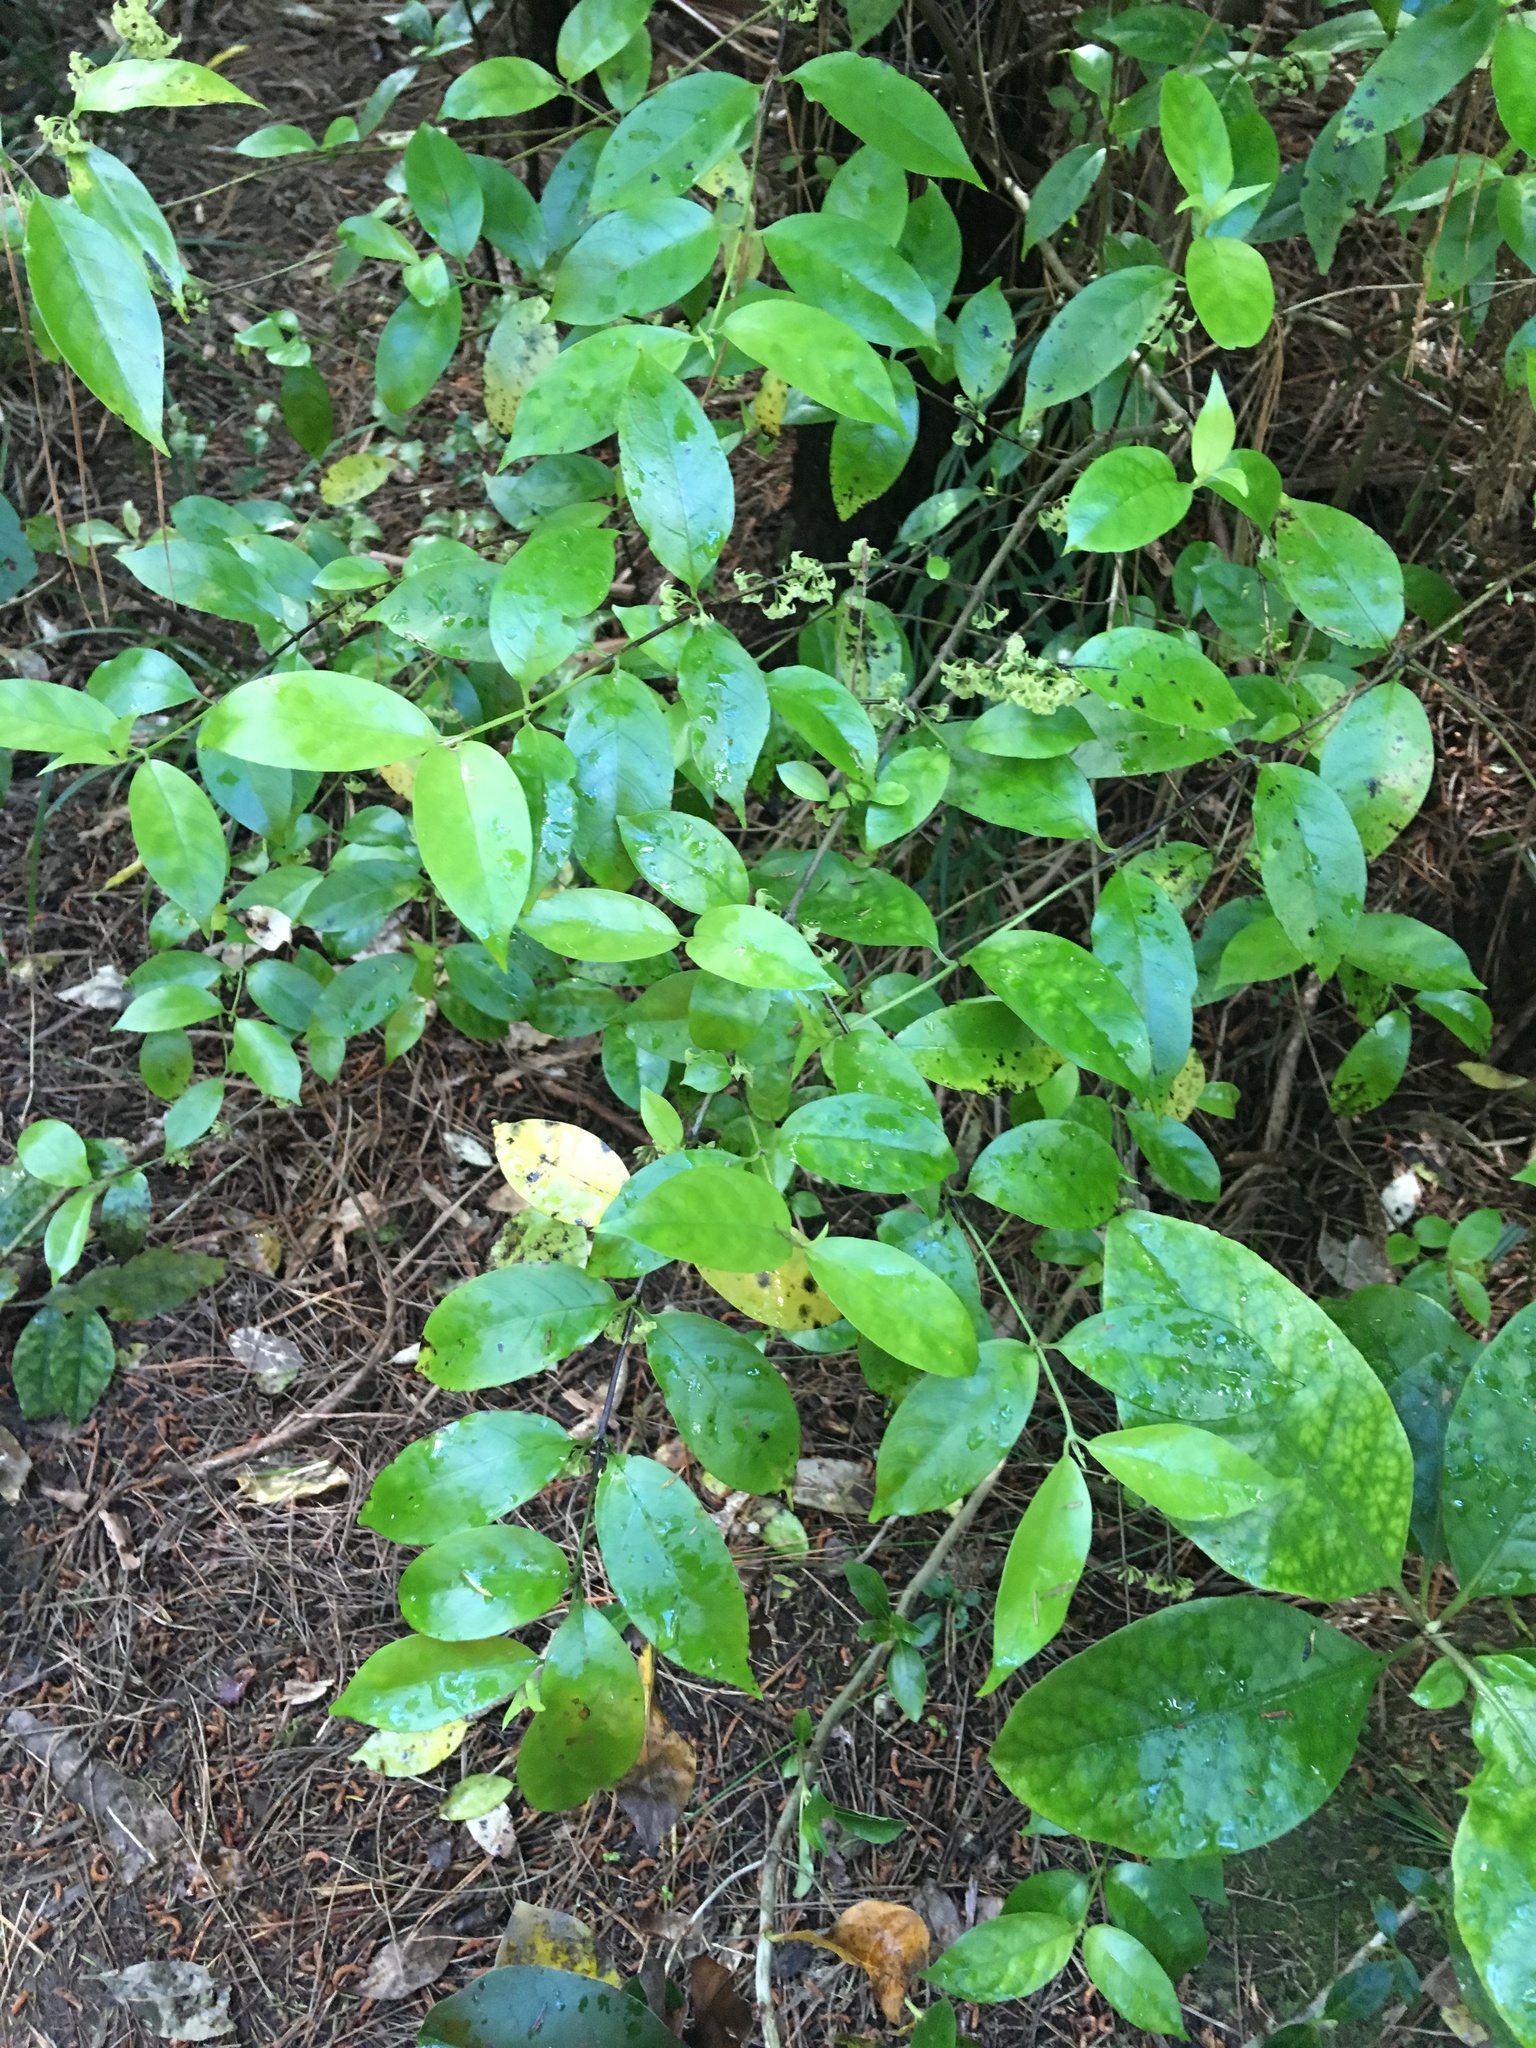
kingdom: Plantae
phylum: Tracheophyta
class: Magnoliopsida
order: Gentianales
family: Loganiaceae
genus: Geniostoma
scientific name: Geniostoma ligustrifolium
